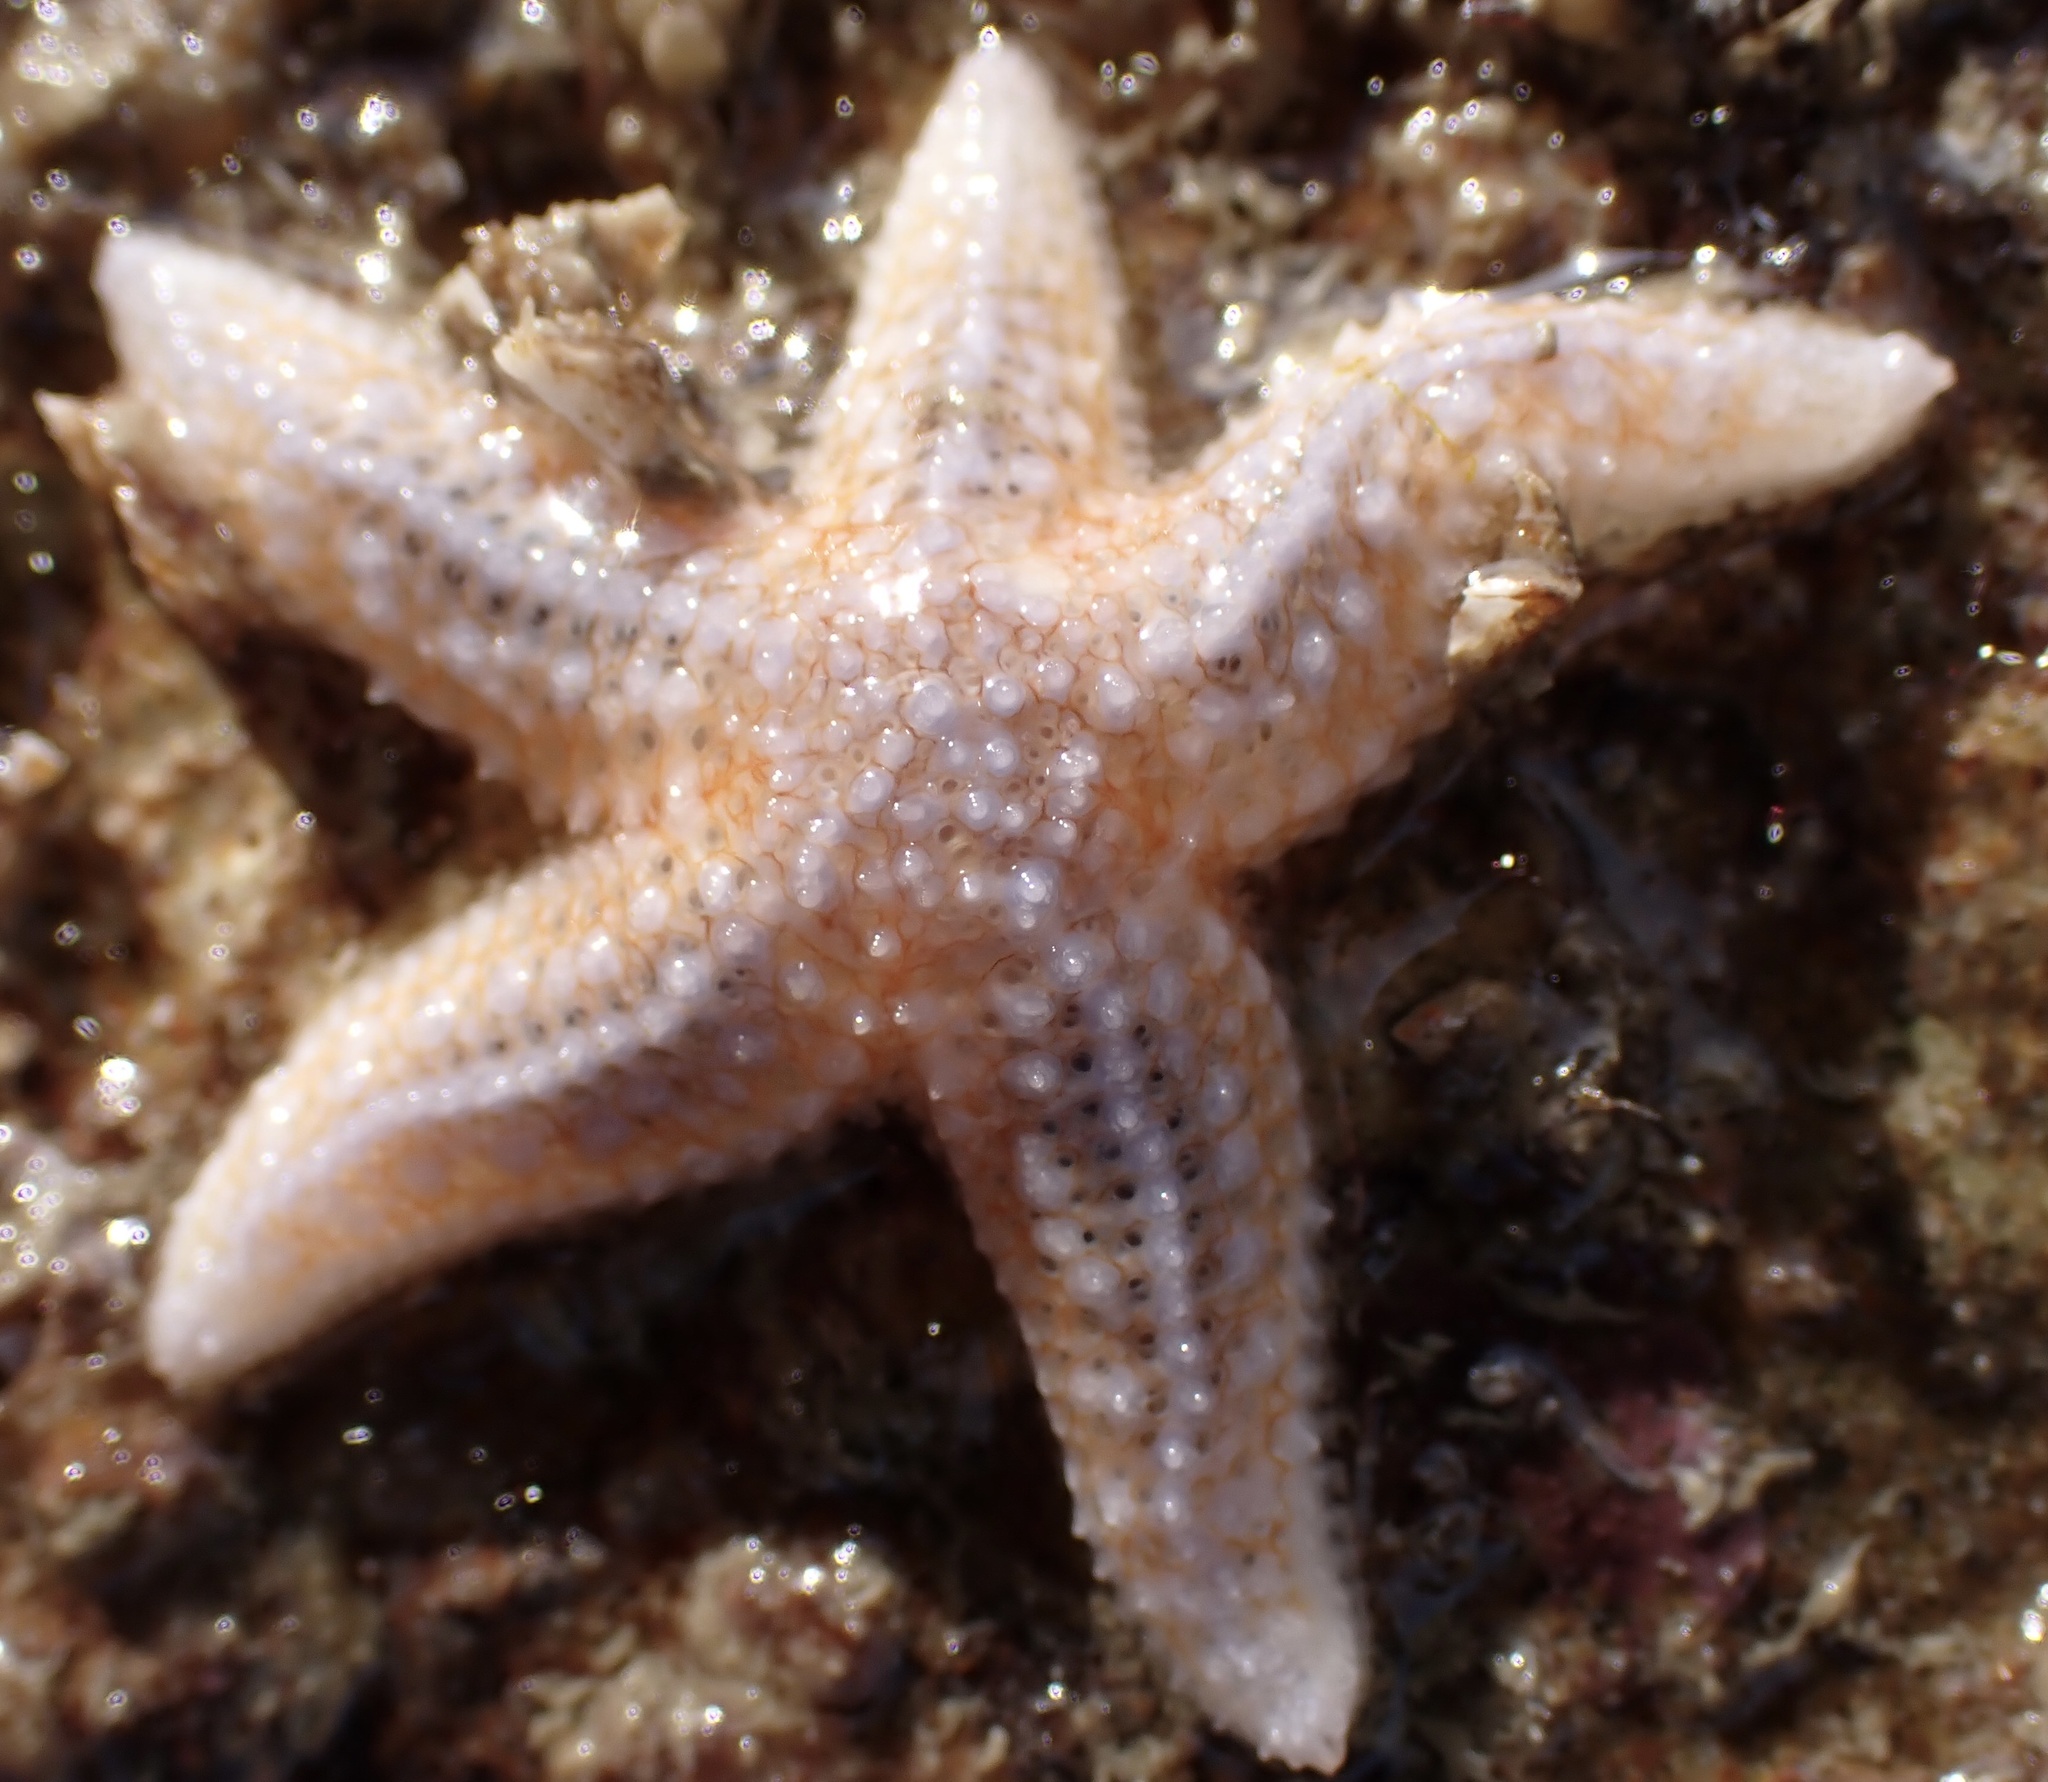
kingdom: Animalia
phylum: Echinodermata
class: Asteroidea
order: Forcipulatida
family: Asteriidae
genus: Asterias
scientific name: Asterias rubens
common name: Common starfish
